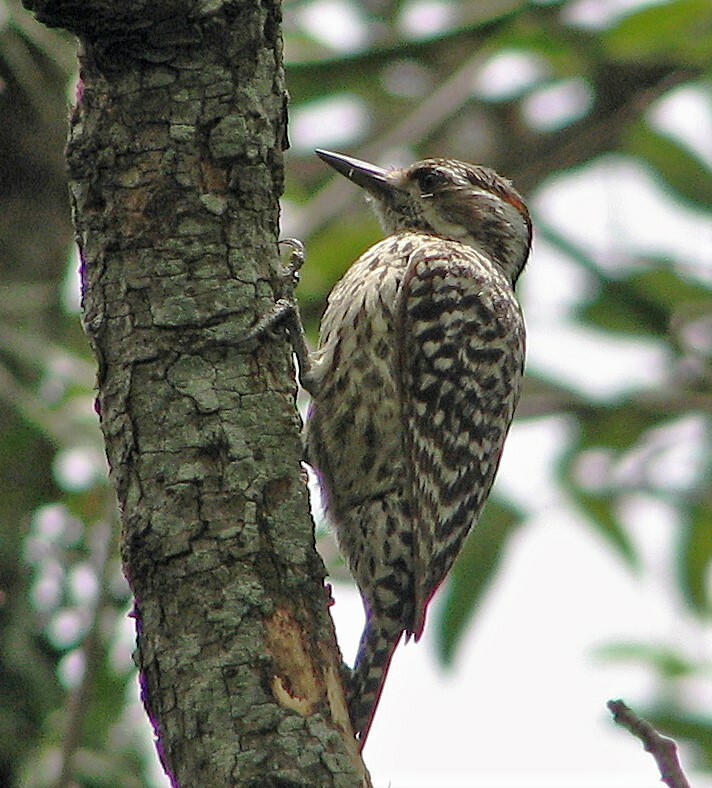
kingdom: Animalia
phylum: Chordata
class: Aves
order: Piciformes
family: Picidae
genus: Veniliornis
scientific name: Veniliornis mixtus
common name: Checkered woodpecker
